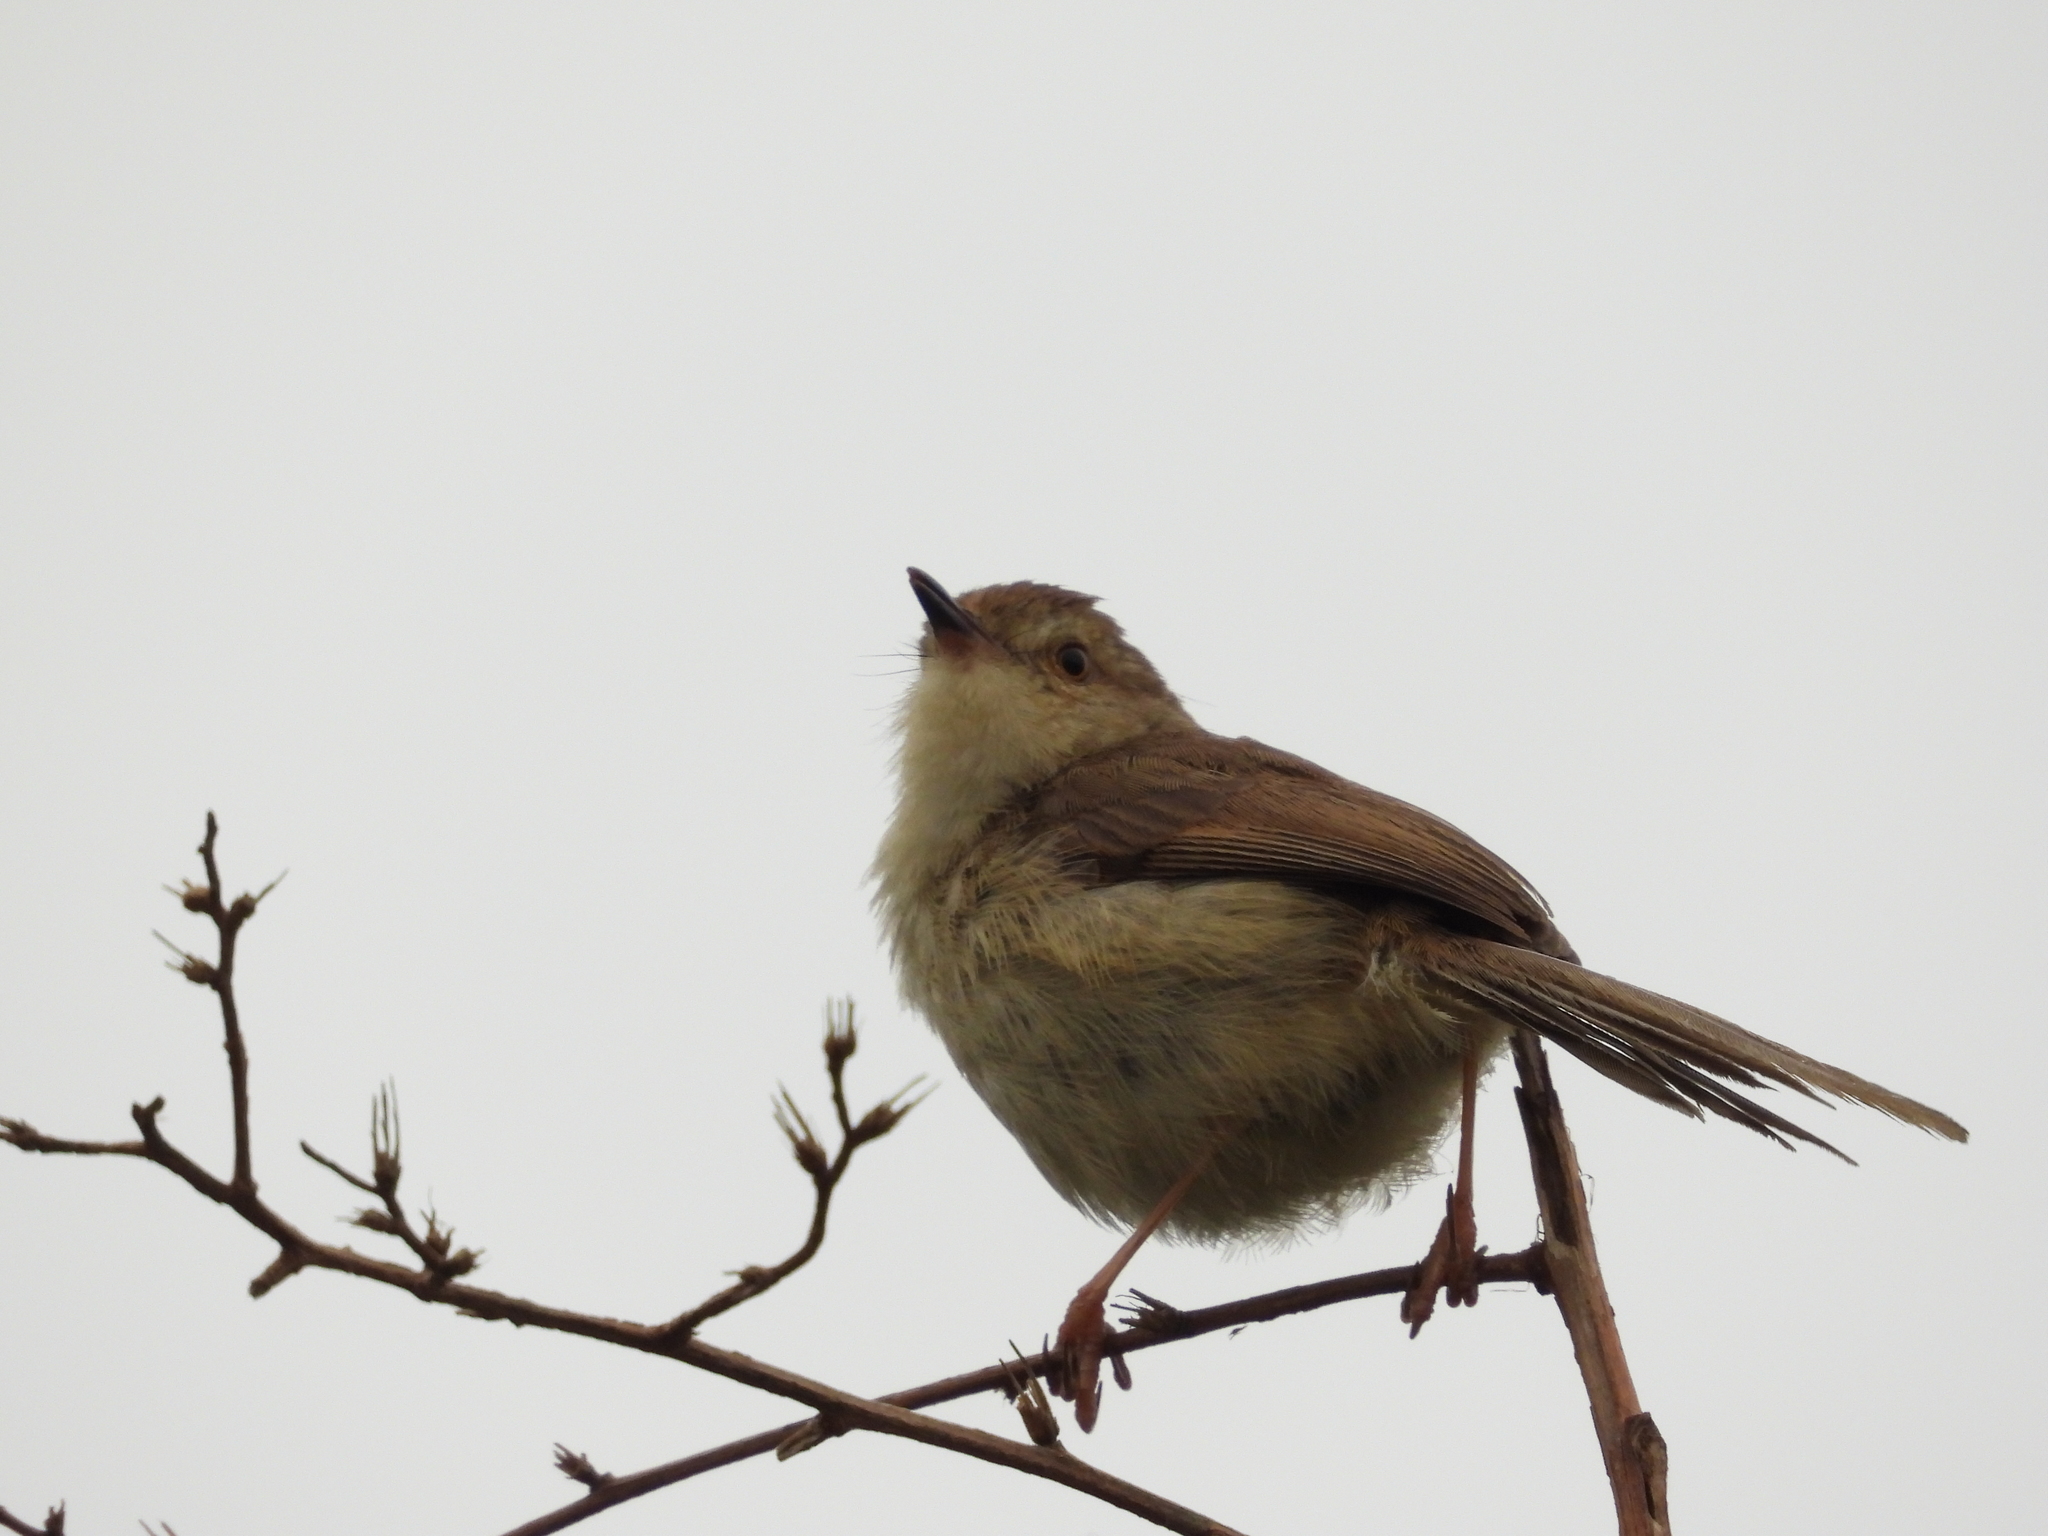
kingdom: Animalia
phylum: Chordata
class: Aves
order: Passeriformes
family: Cisticolidae
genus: Prinia
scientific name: Prinia inornata
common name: Plain prinia
